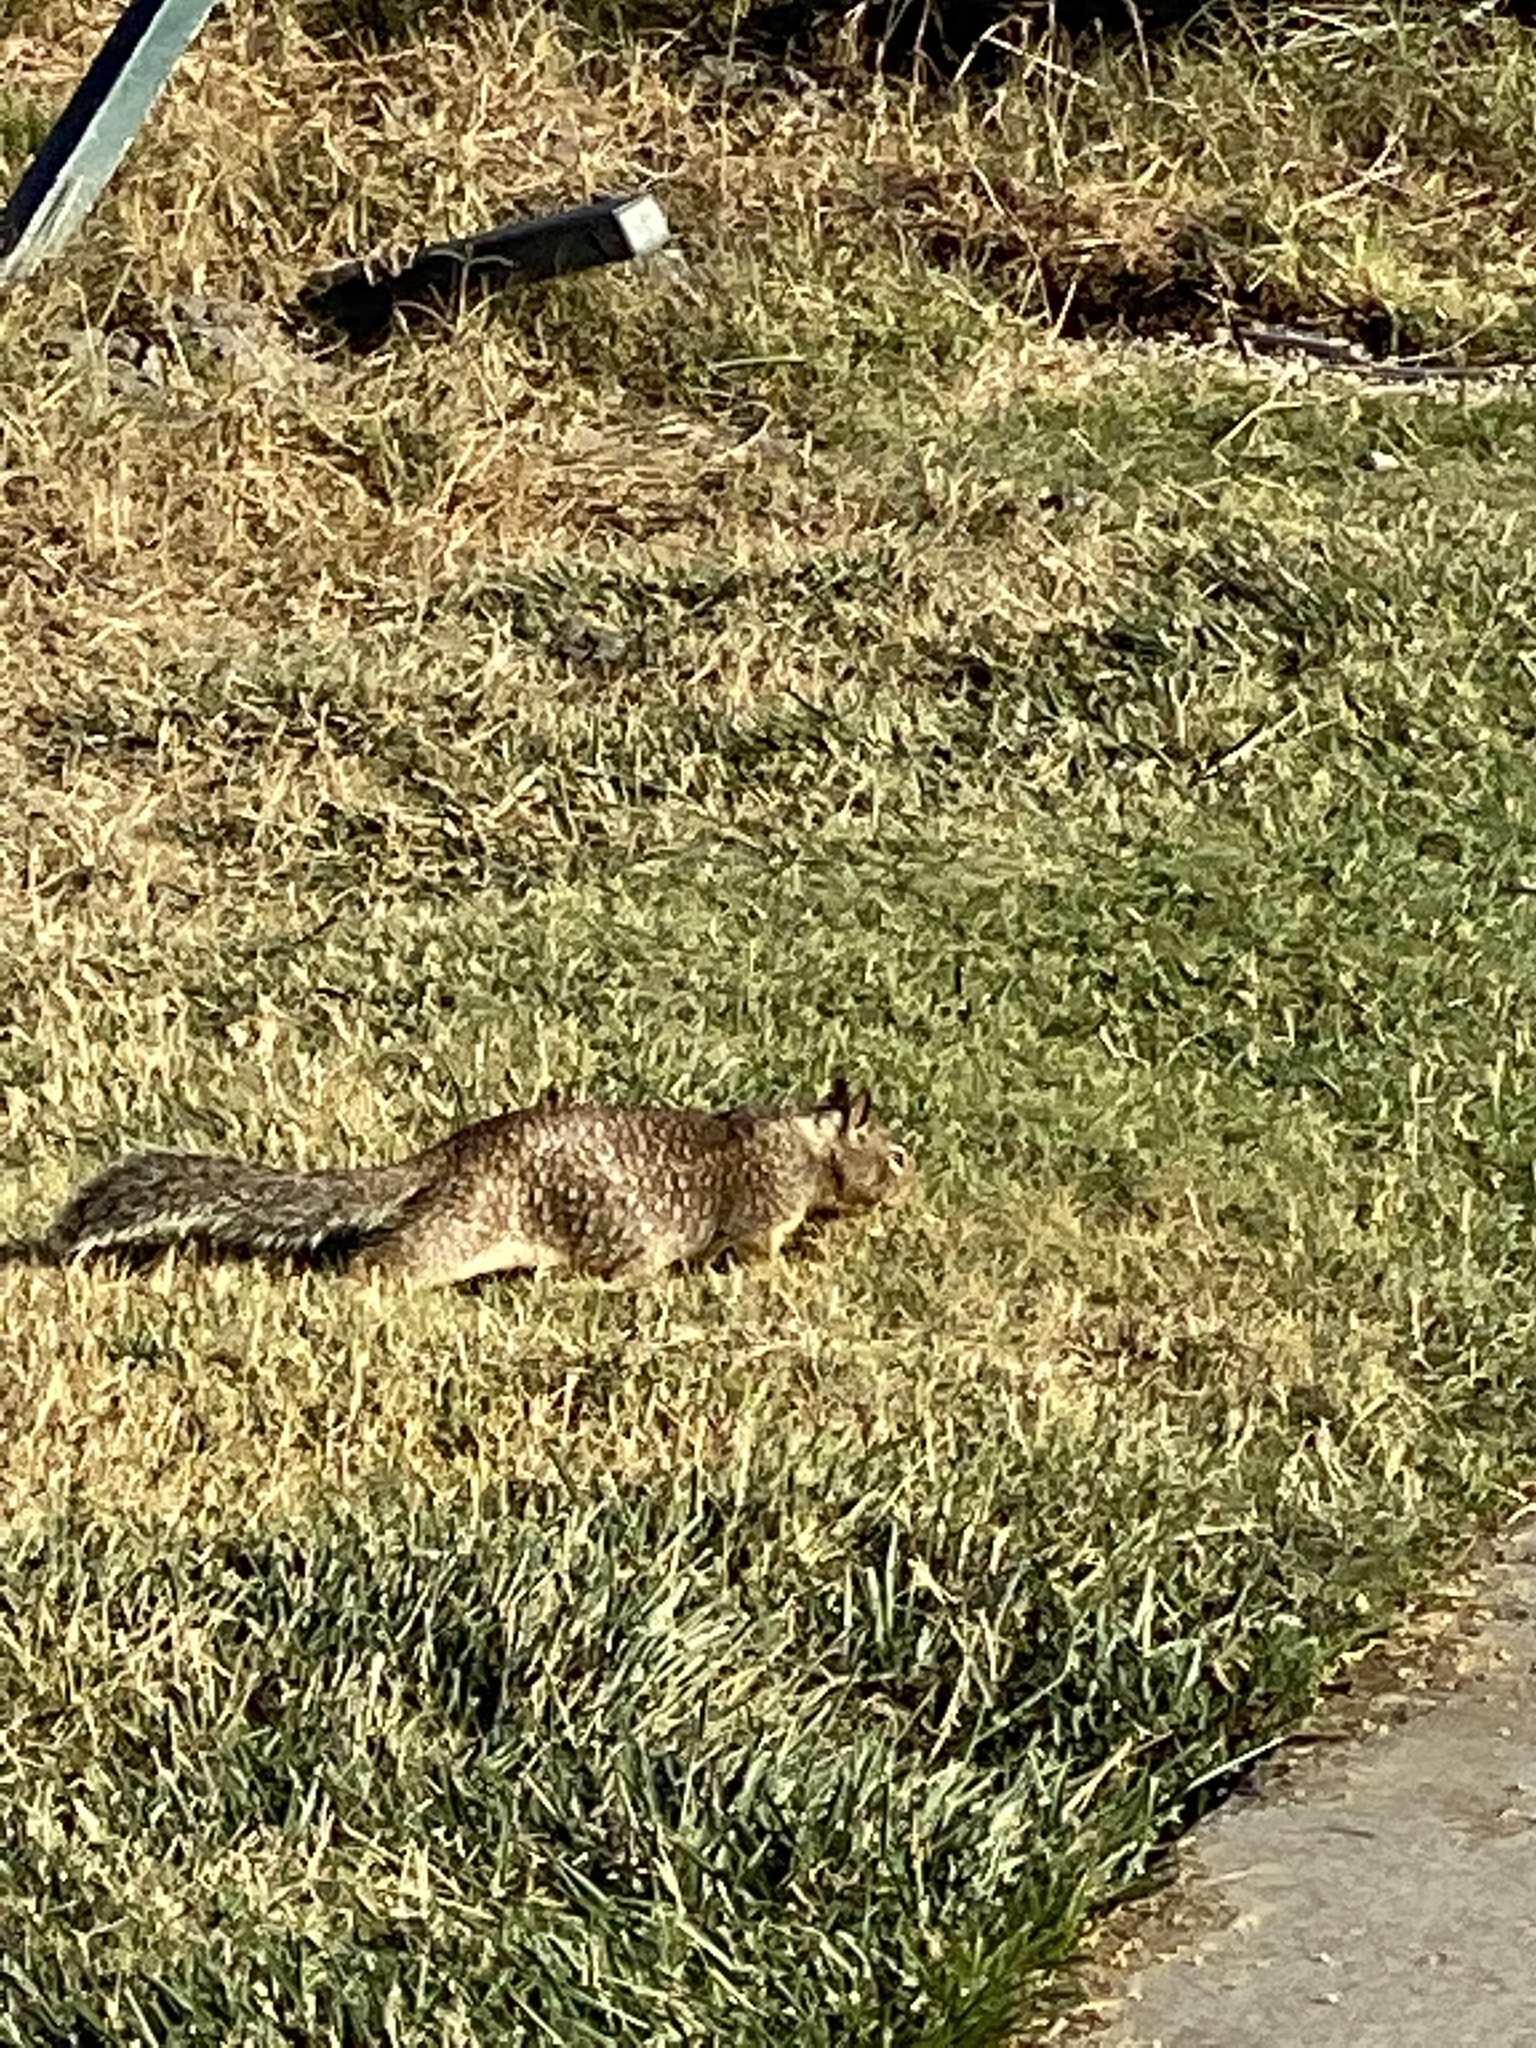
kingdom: Animalia
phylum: Chordata
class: Mammalia
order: Rodentia
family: Sciuridae
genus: Otospermophilus
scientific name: Otospermophilus beecheyi
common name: California ground squirrel
